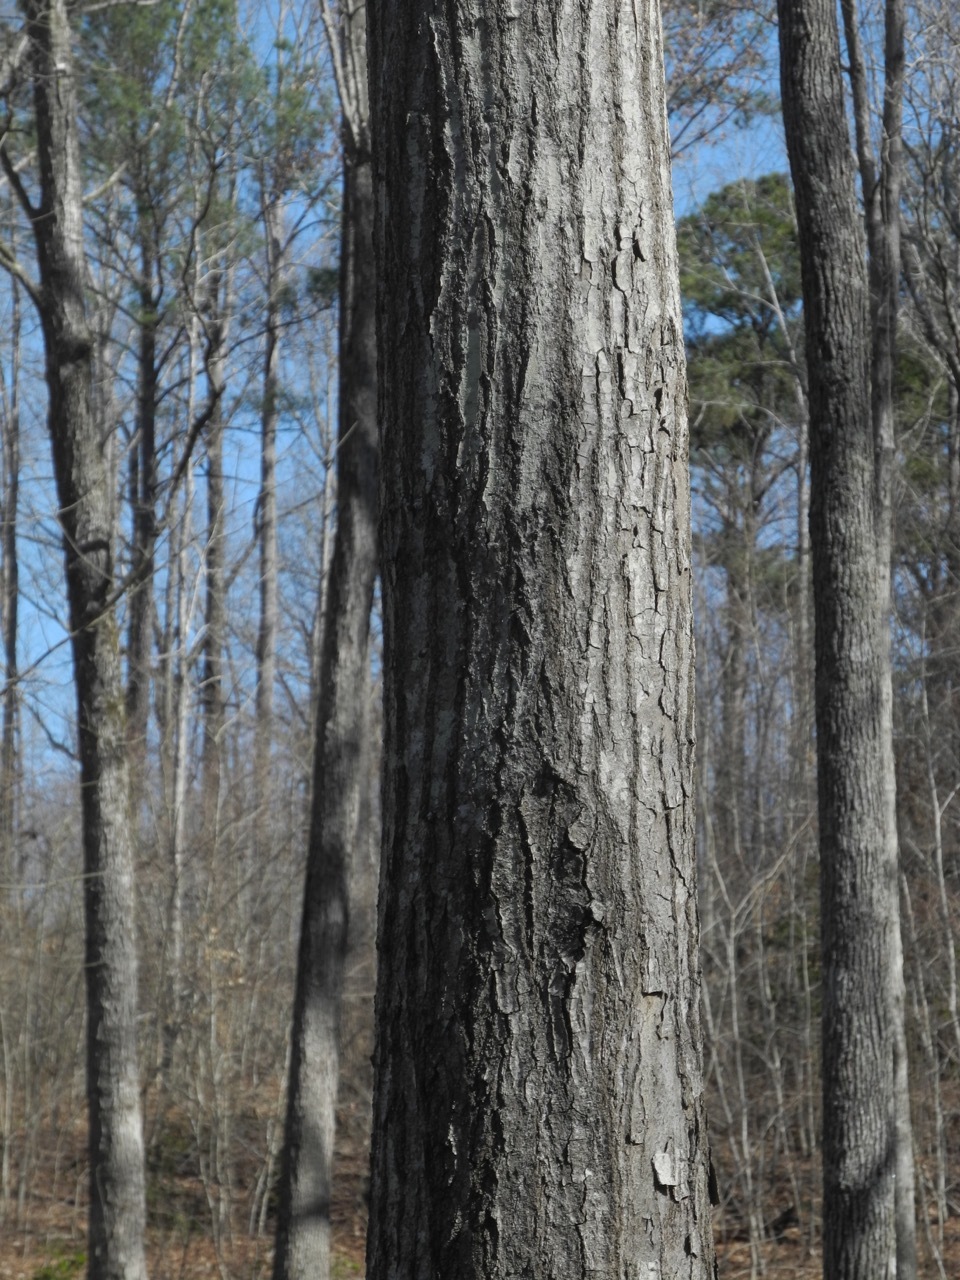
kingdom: Plantae
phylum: Tracheophyta
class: Magnoliopsida
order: Fagales
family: Fagaceae
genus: Quercus
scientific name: Quercus rubra
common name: Red oak
